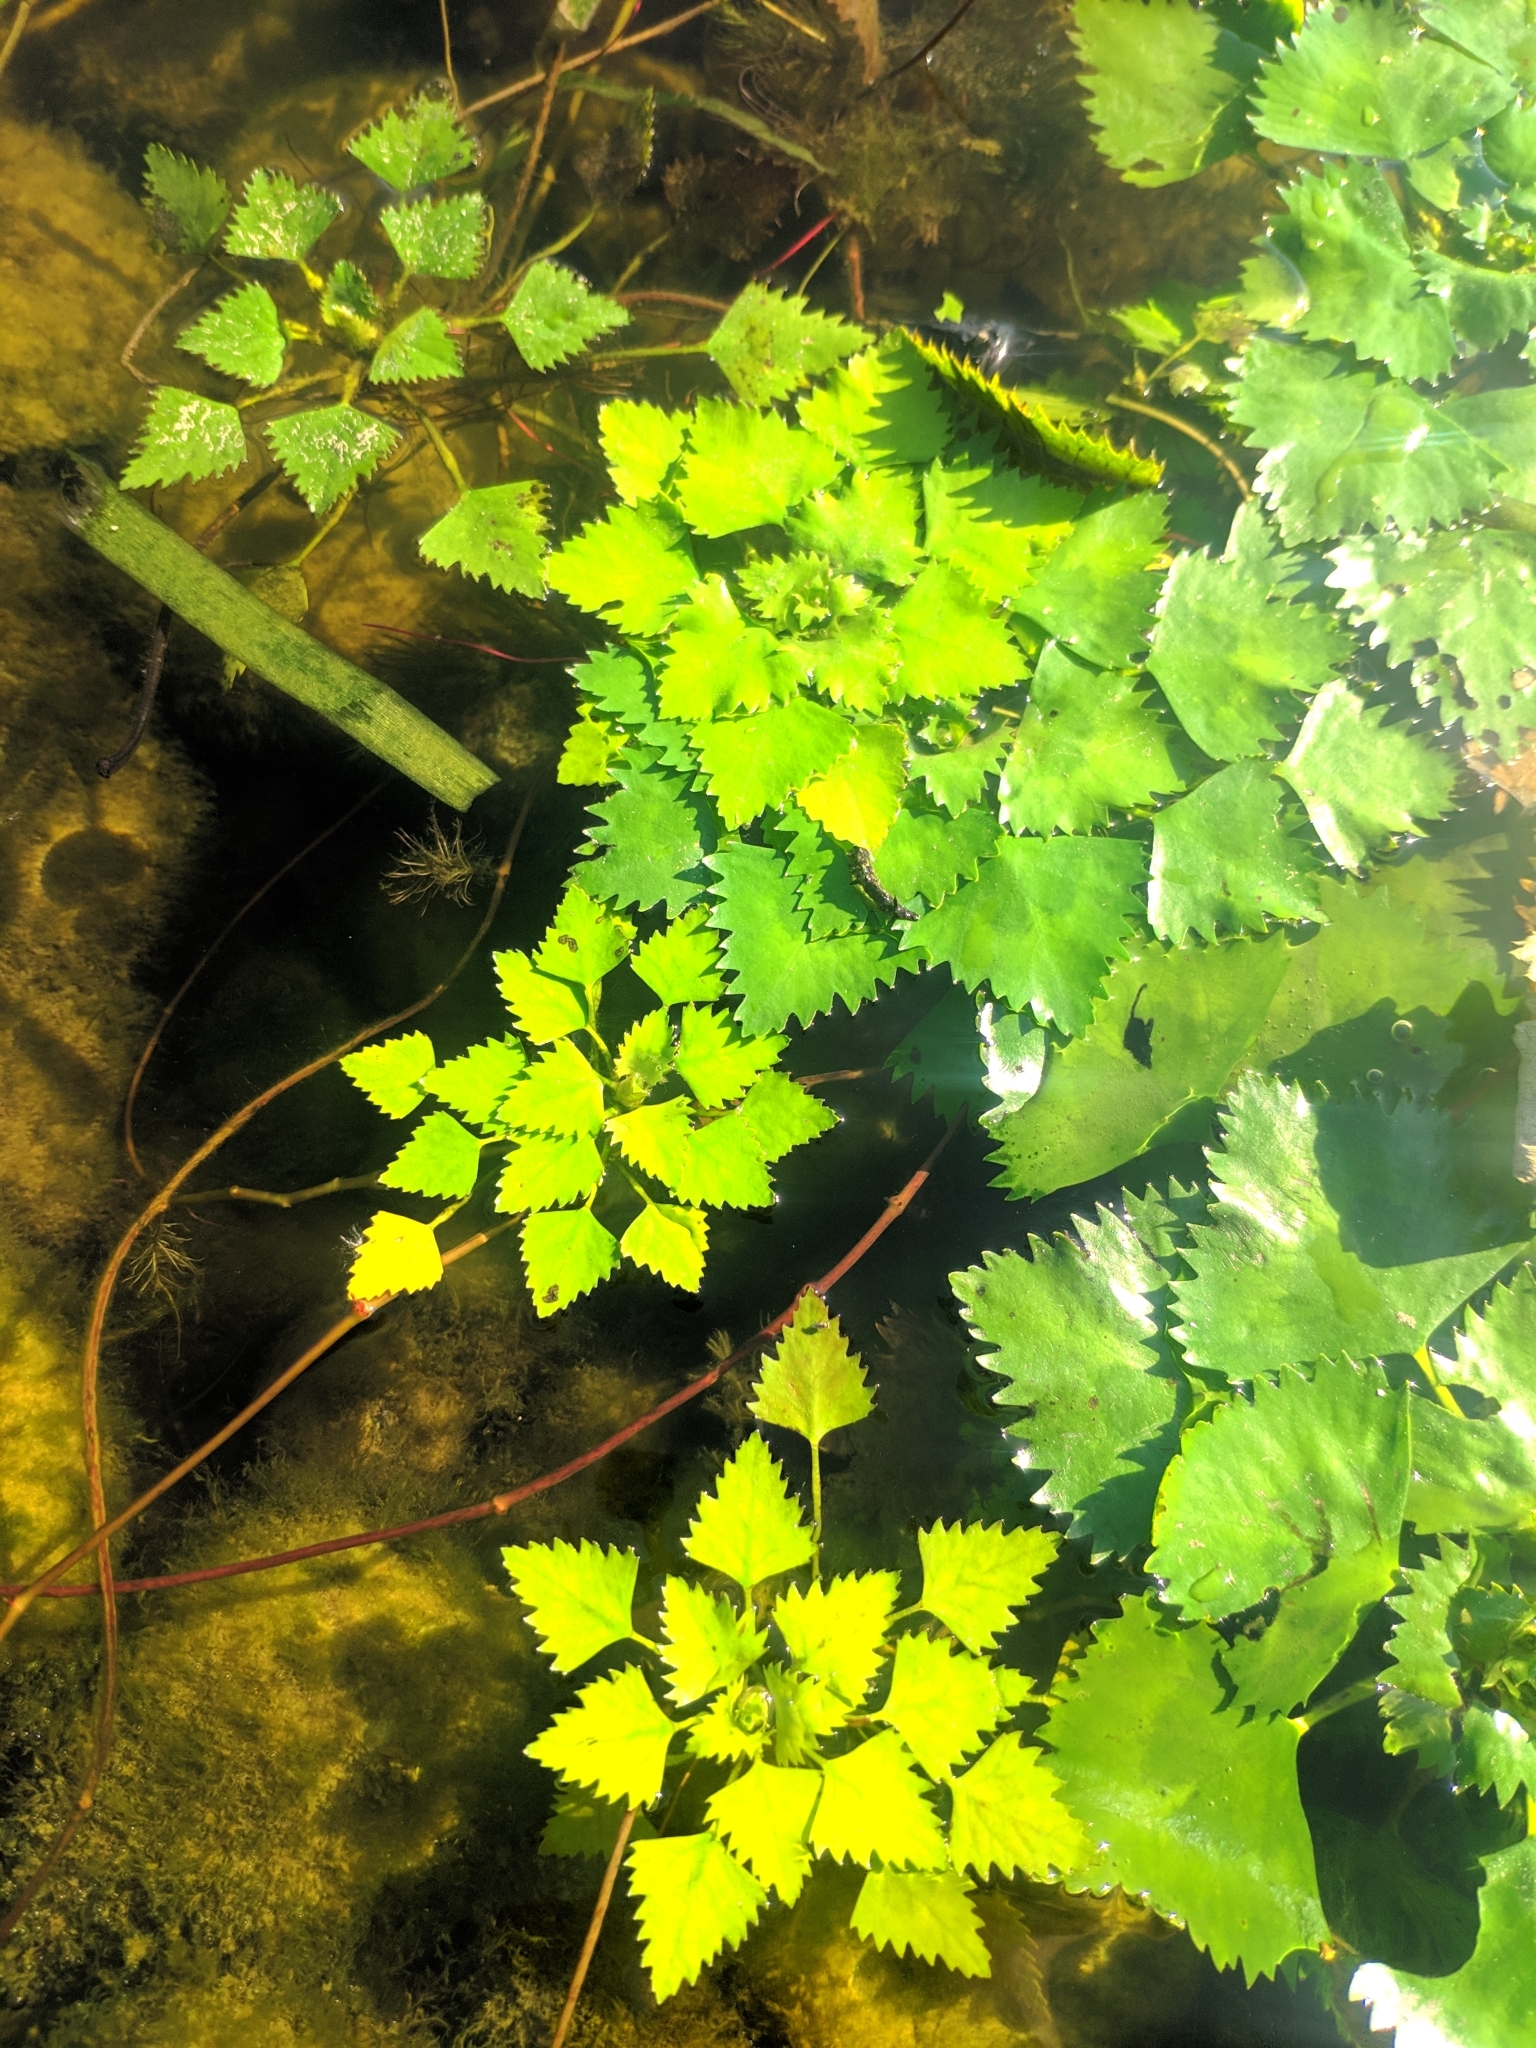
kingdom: Plantae
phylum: Tracheophyta
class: Magnoliopsida
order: Myrtales
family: Lythraceae
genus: Trapa
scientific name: Trapa natans
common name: Water chestnut
